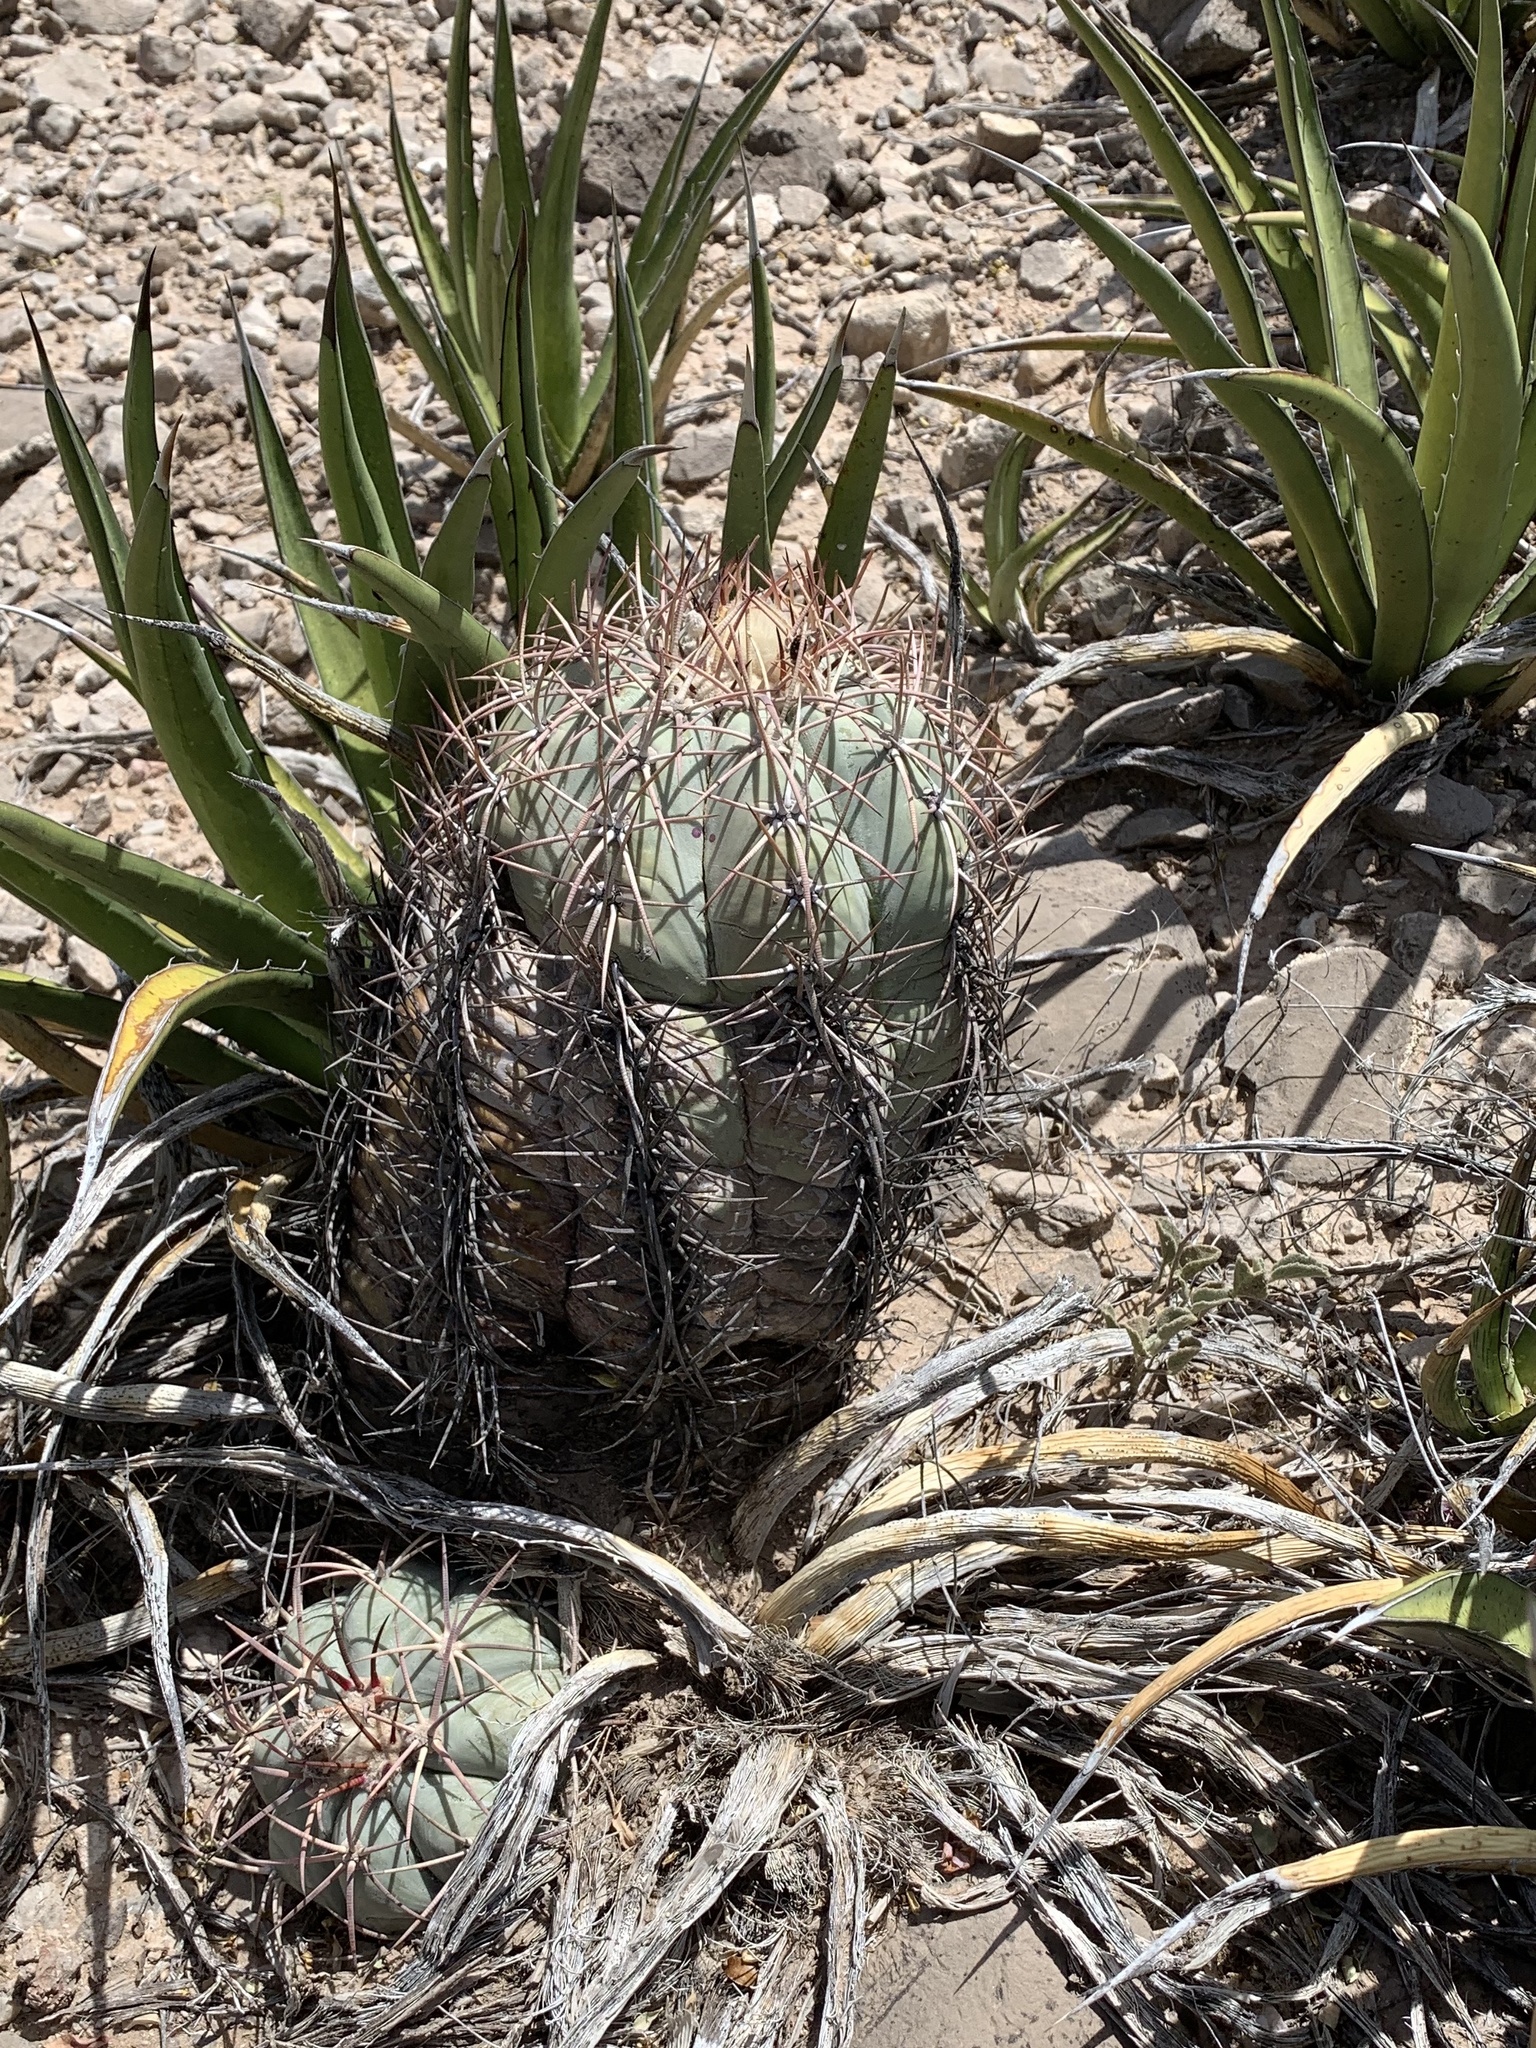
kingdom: Plantae
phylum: Tracheophyta
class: Magnoliopsida
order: Caryophyllales
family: Cactaceae
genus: Echinocactus
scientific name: Echinocactus horizonthalonius
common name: Devilshead
